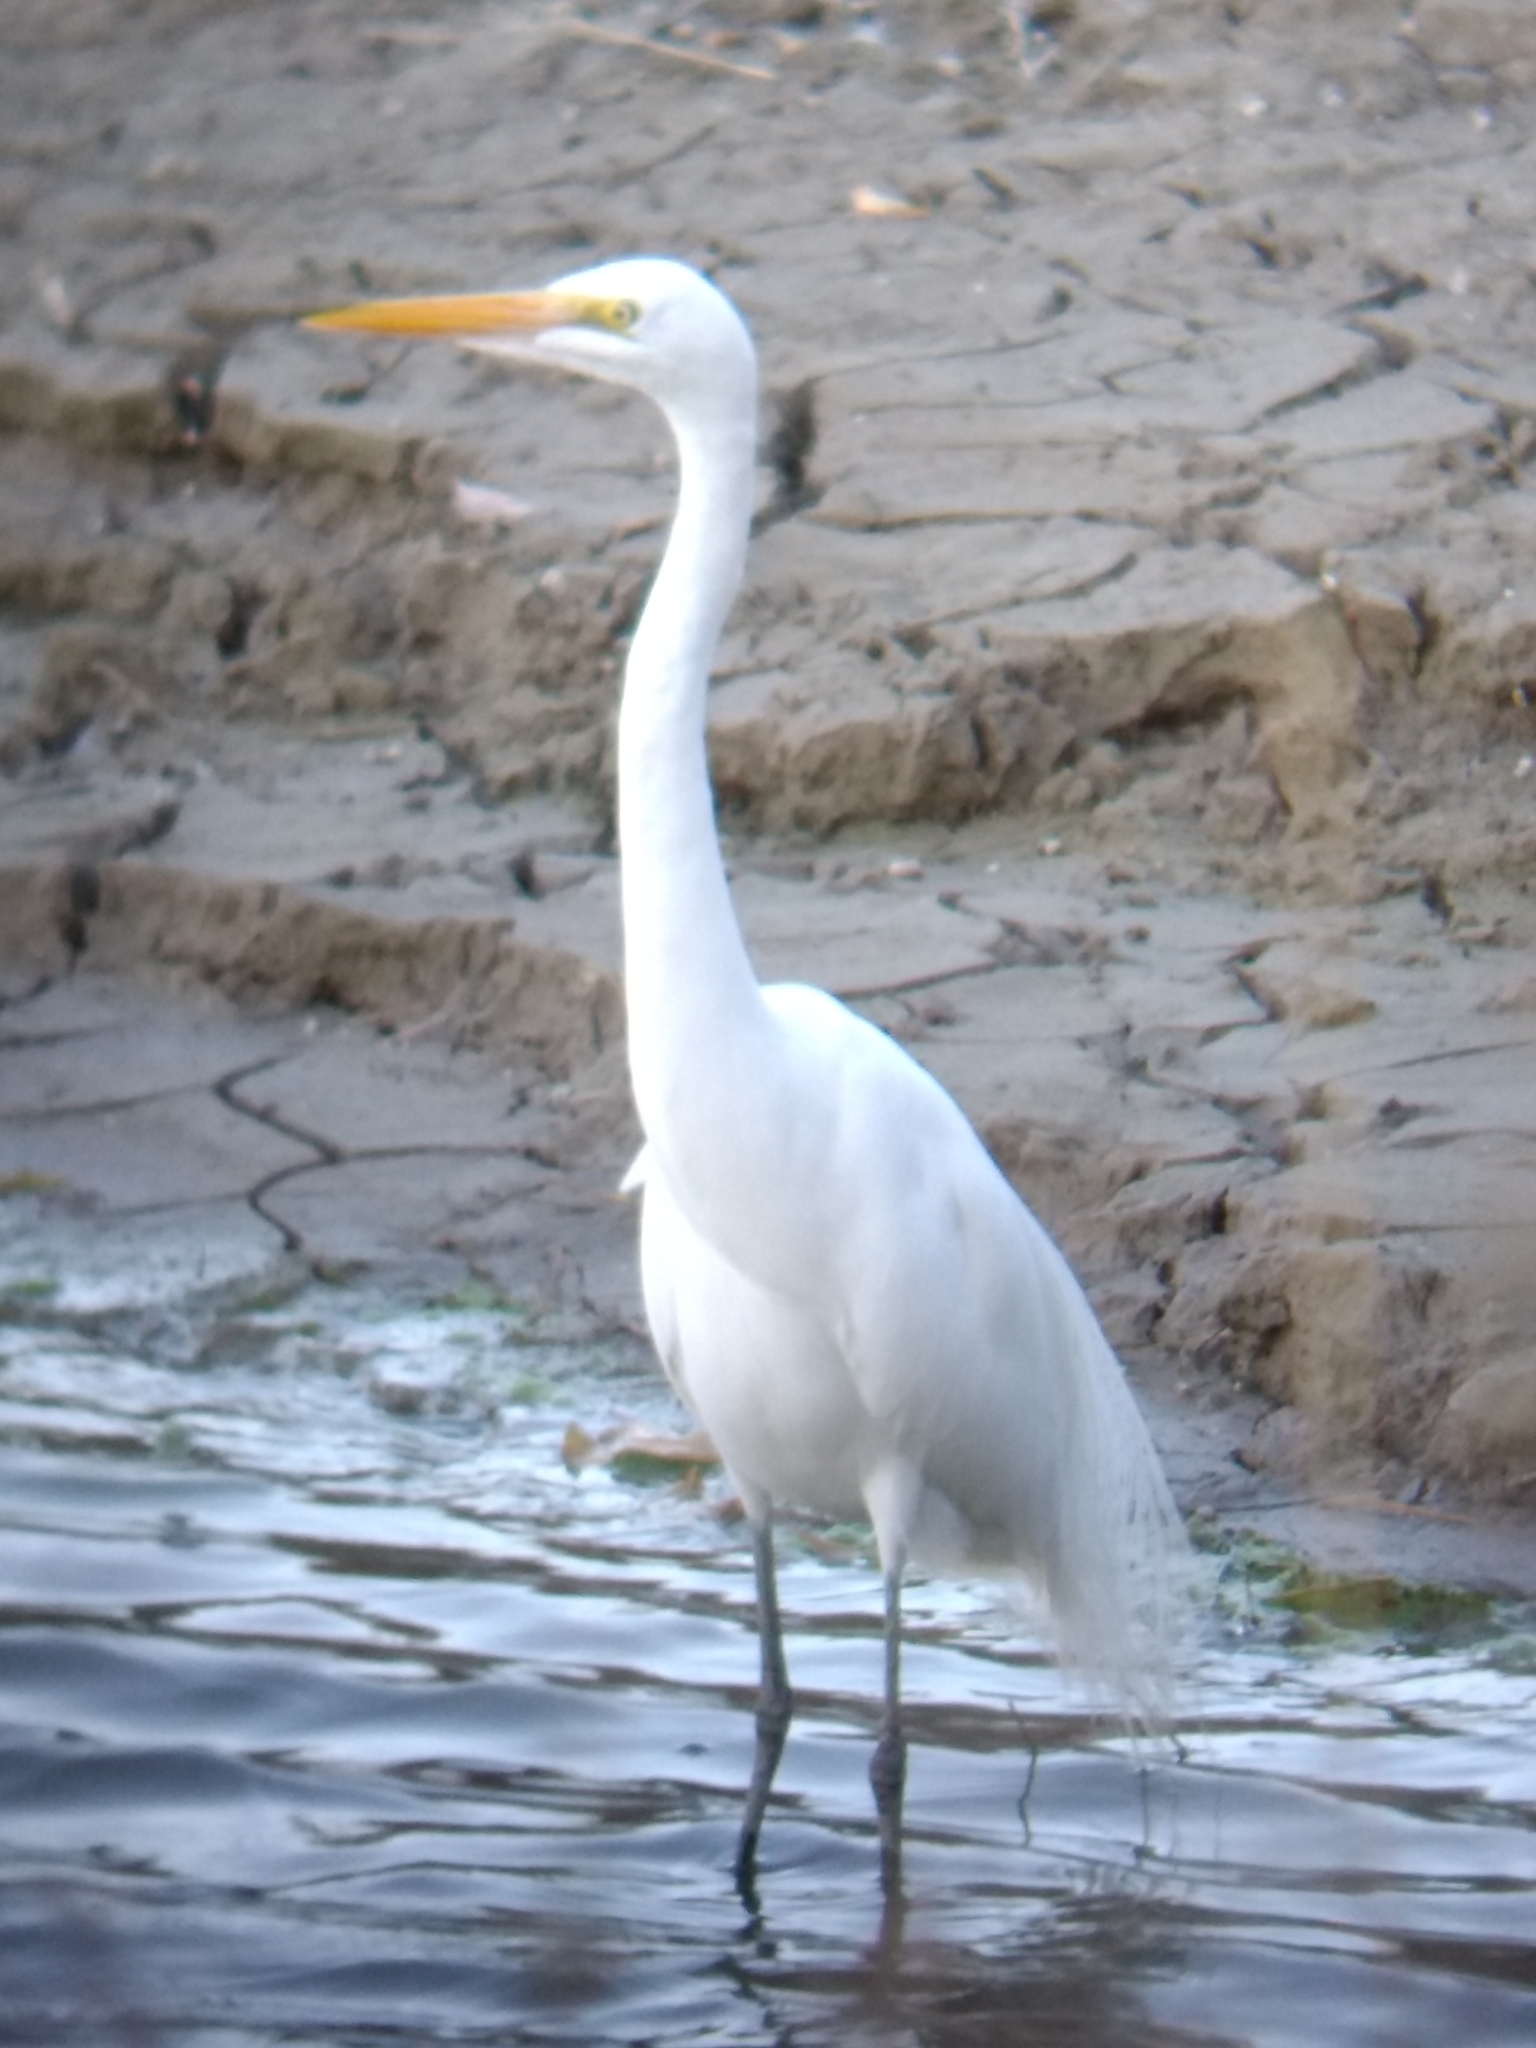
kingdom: Animalia
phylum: Chordata
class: Aves
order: Pelecaniformes
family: Ardeidae
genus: Ardea
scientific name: Ardea alba
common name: Great egret
